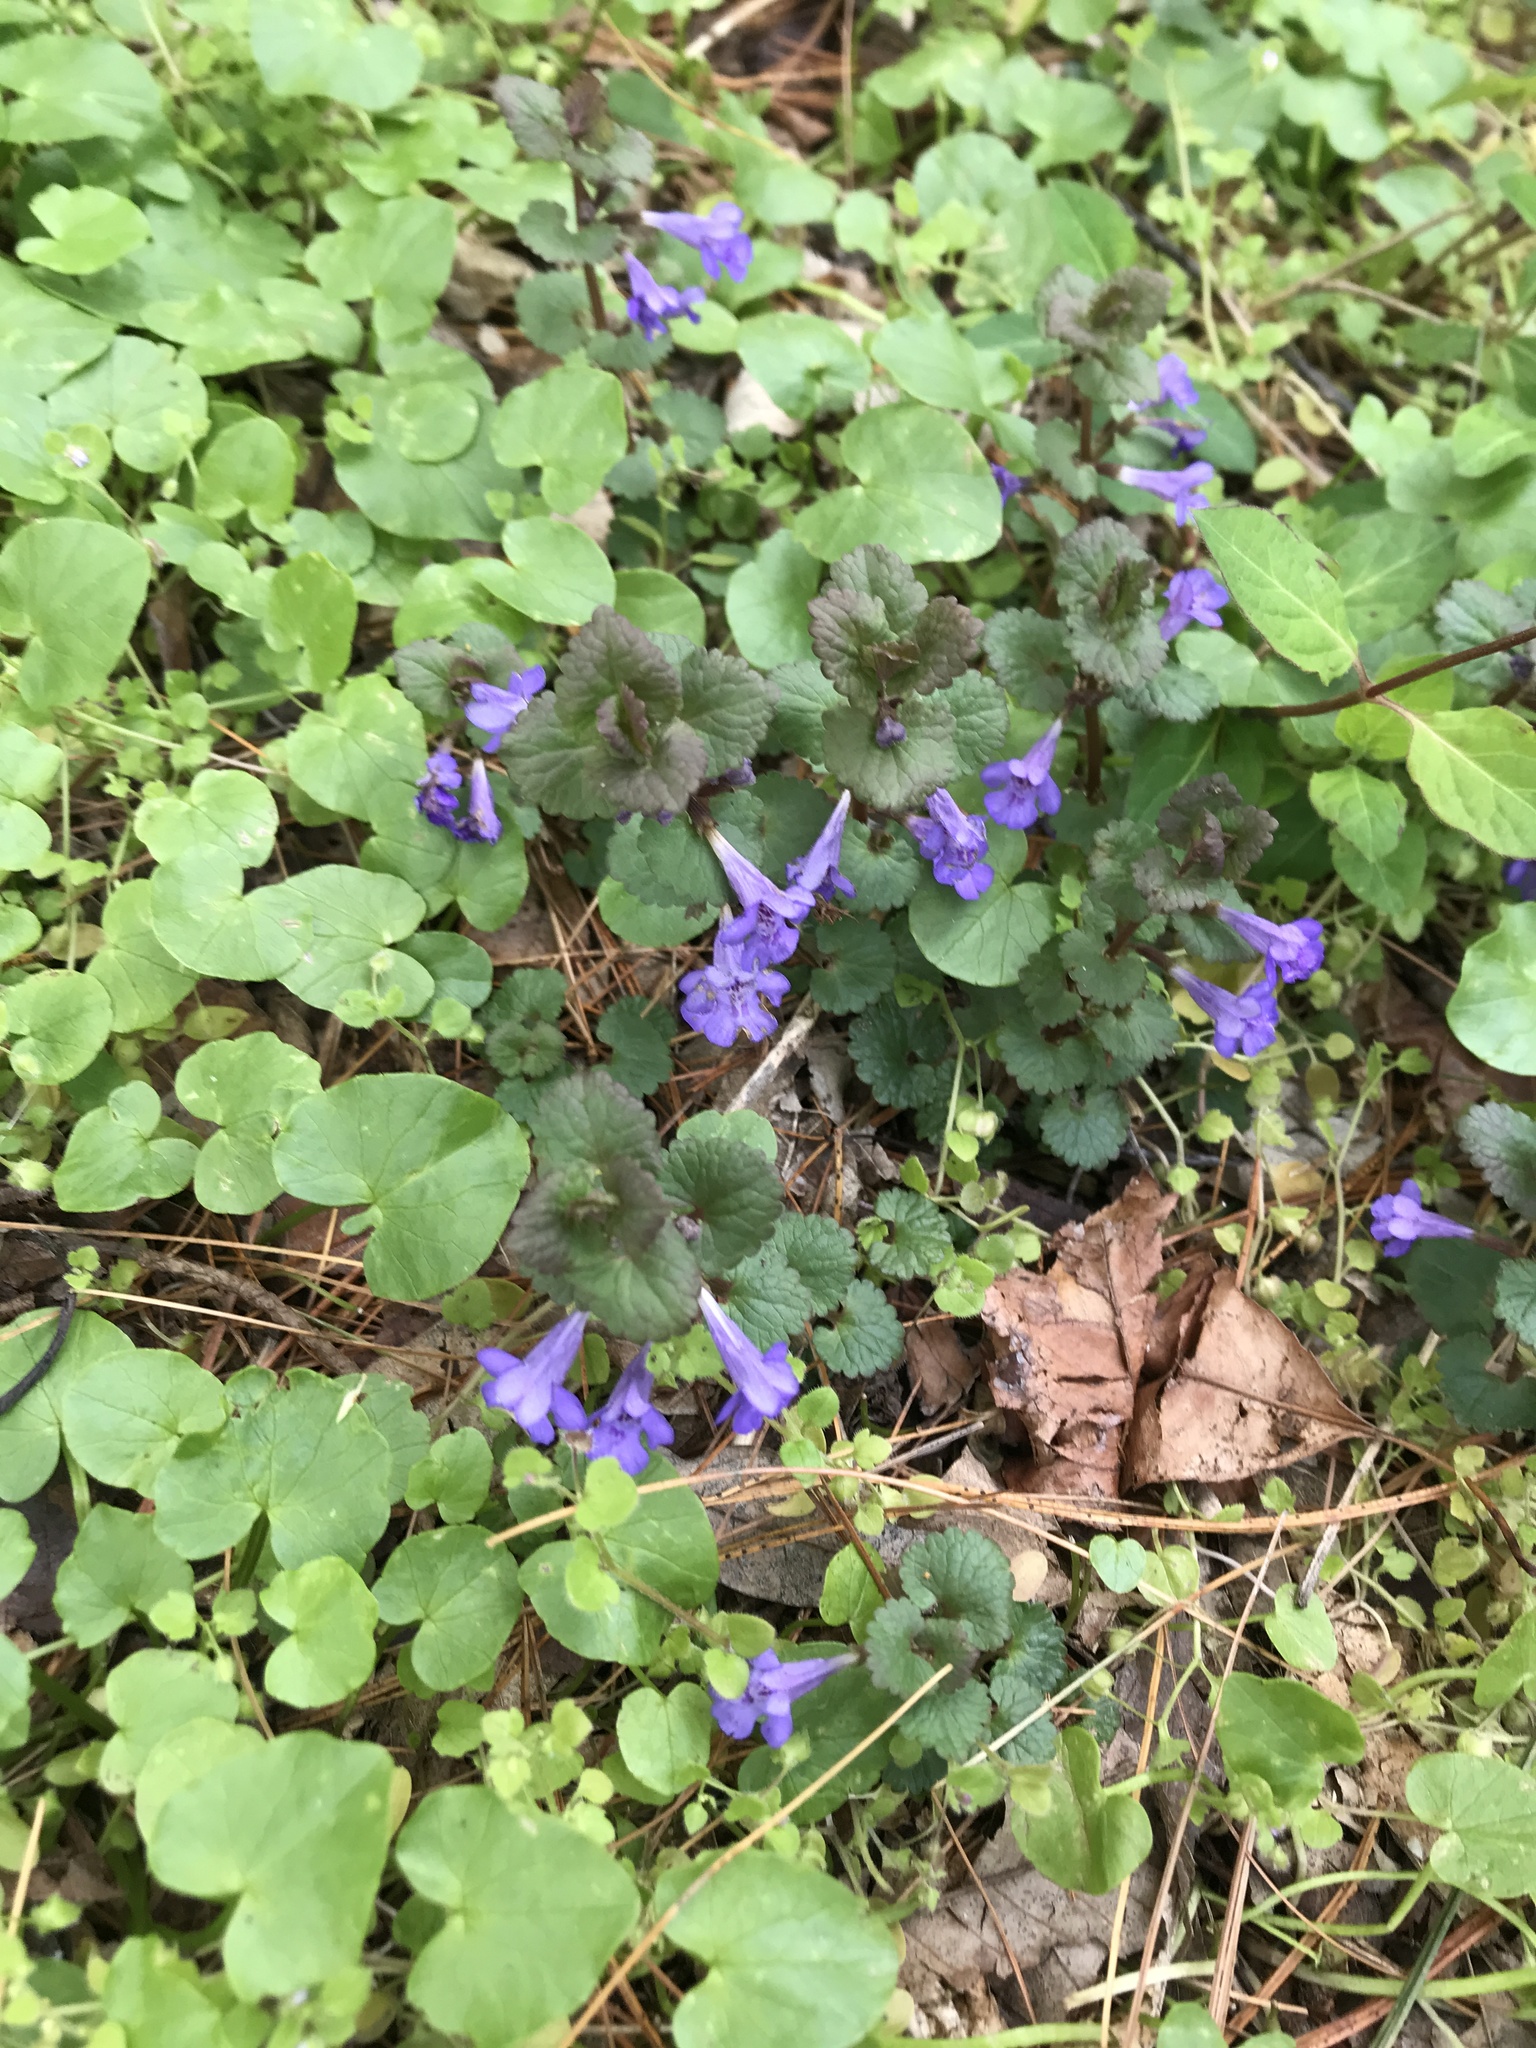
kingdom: Plantae
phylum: Tracheophyta
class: Magnoliopsida
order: Lamiales
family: Lamiaceae
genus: Glechoma
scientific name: Glechoma hederacea
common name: Ground ivy
